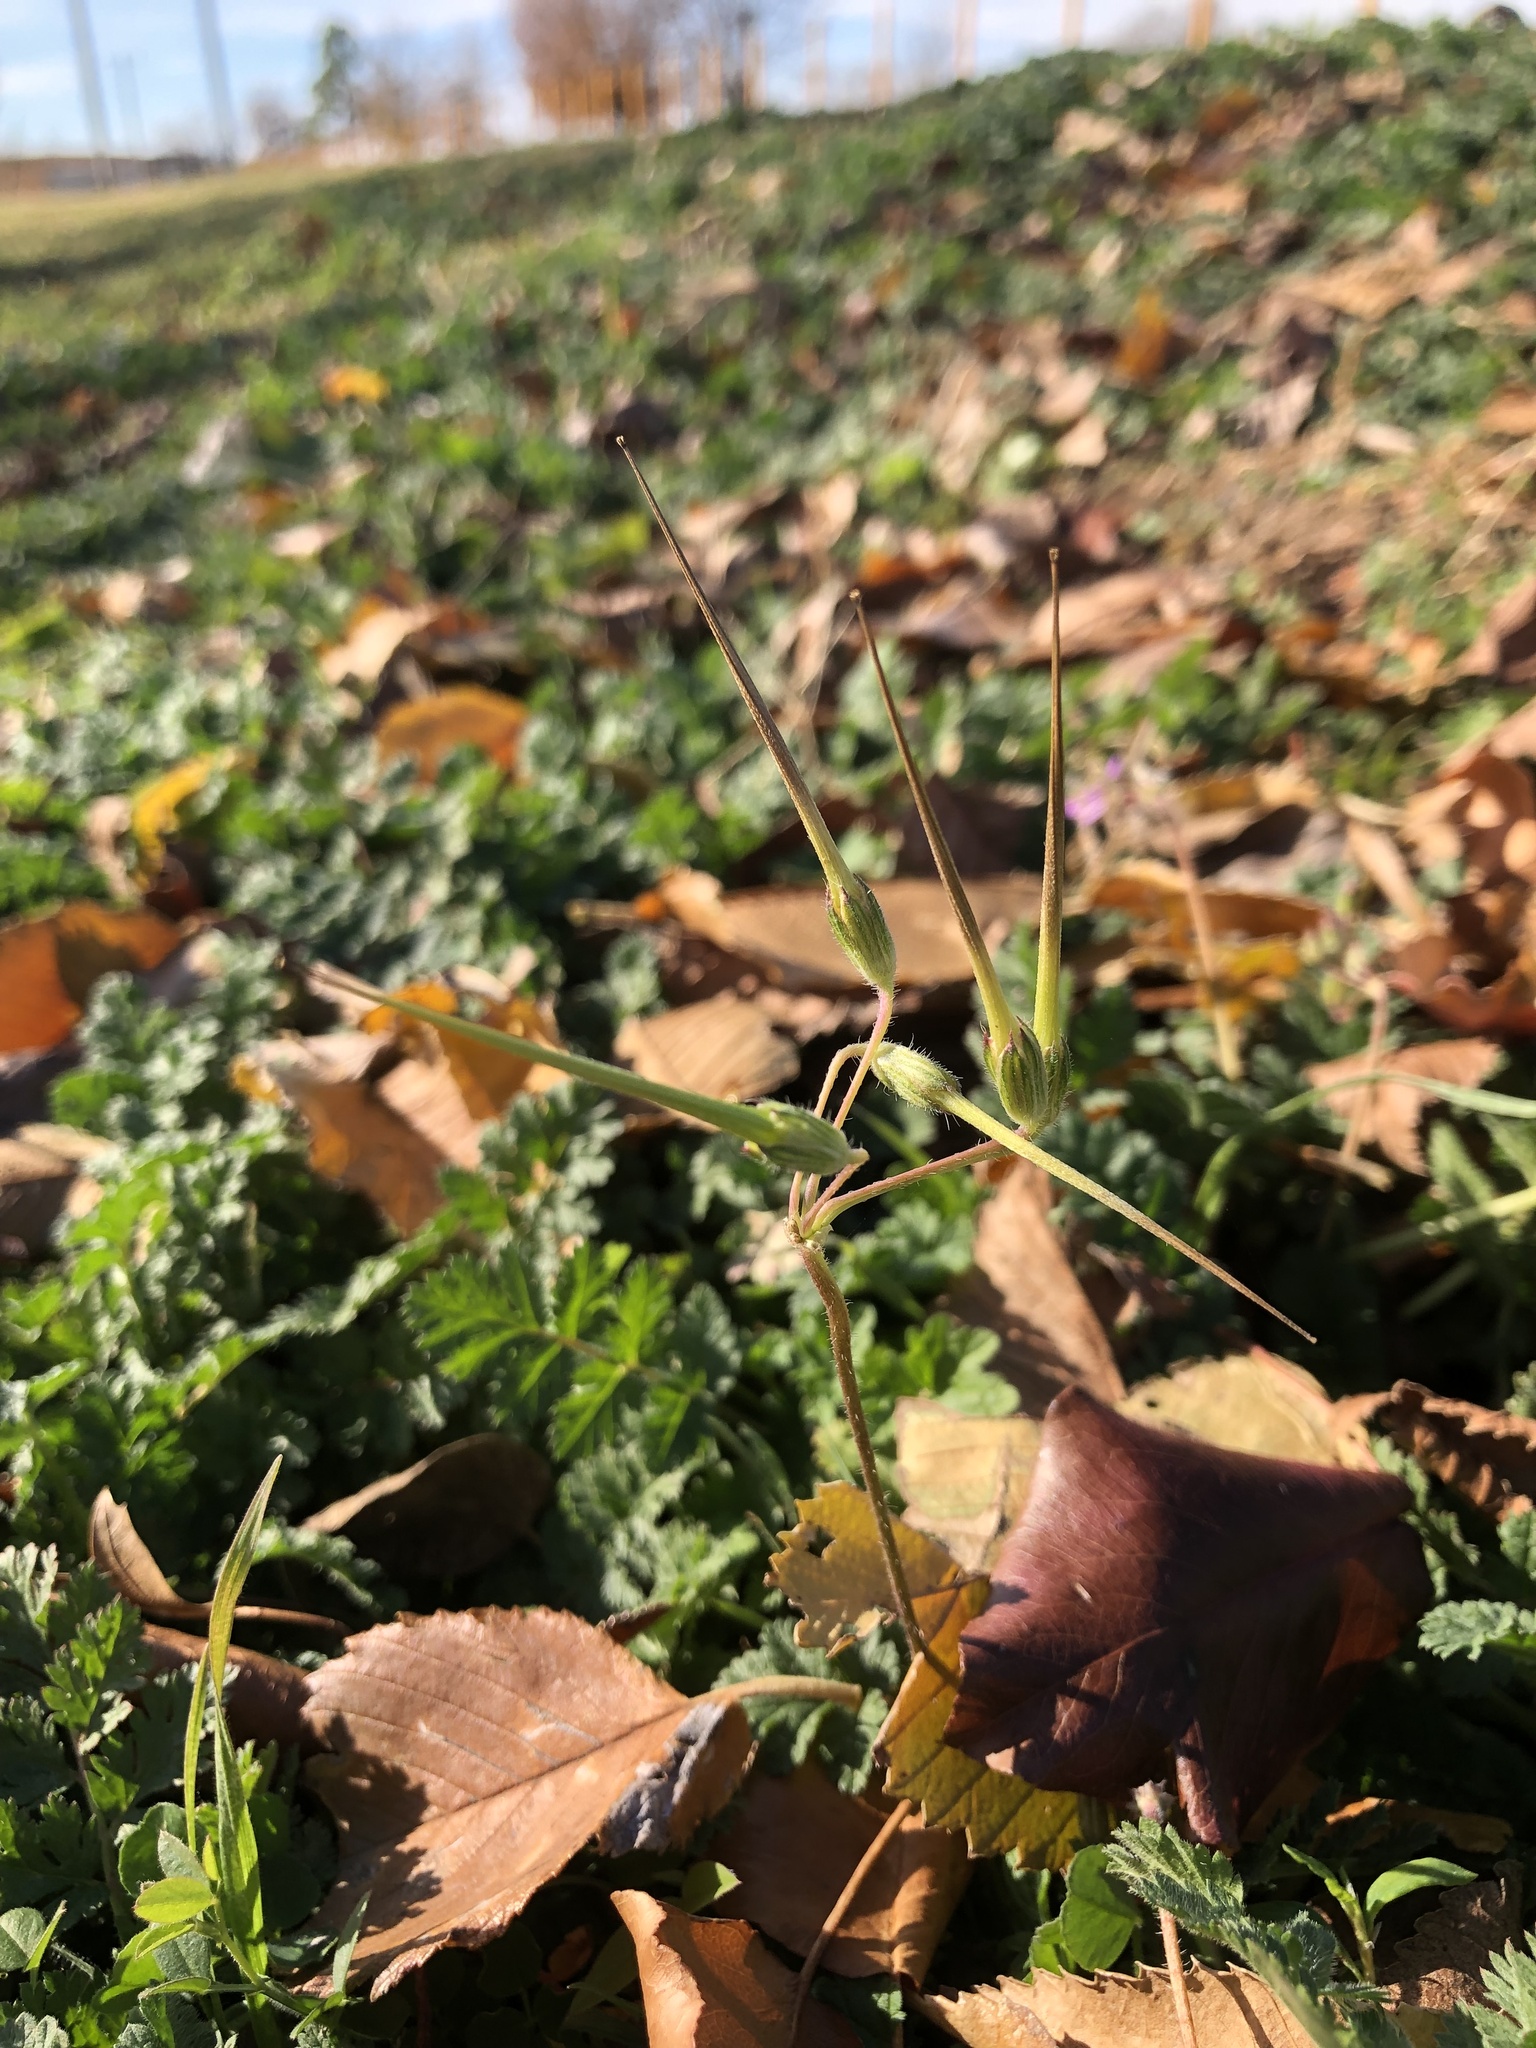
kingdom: Plantae
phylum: Tracheophyta
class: Magnoliopsida
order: Geraniales
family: Geraniaceae
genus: Erodium
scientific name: Erodium cicutarium
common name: Common stork's-bill
